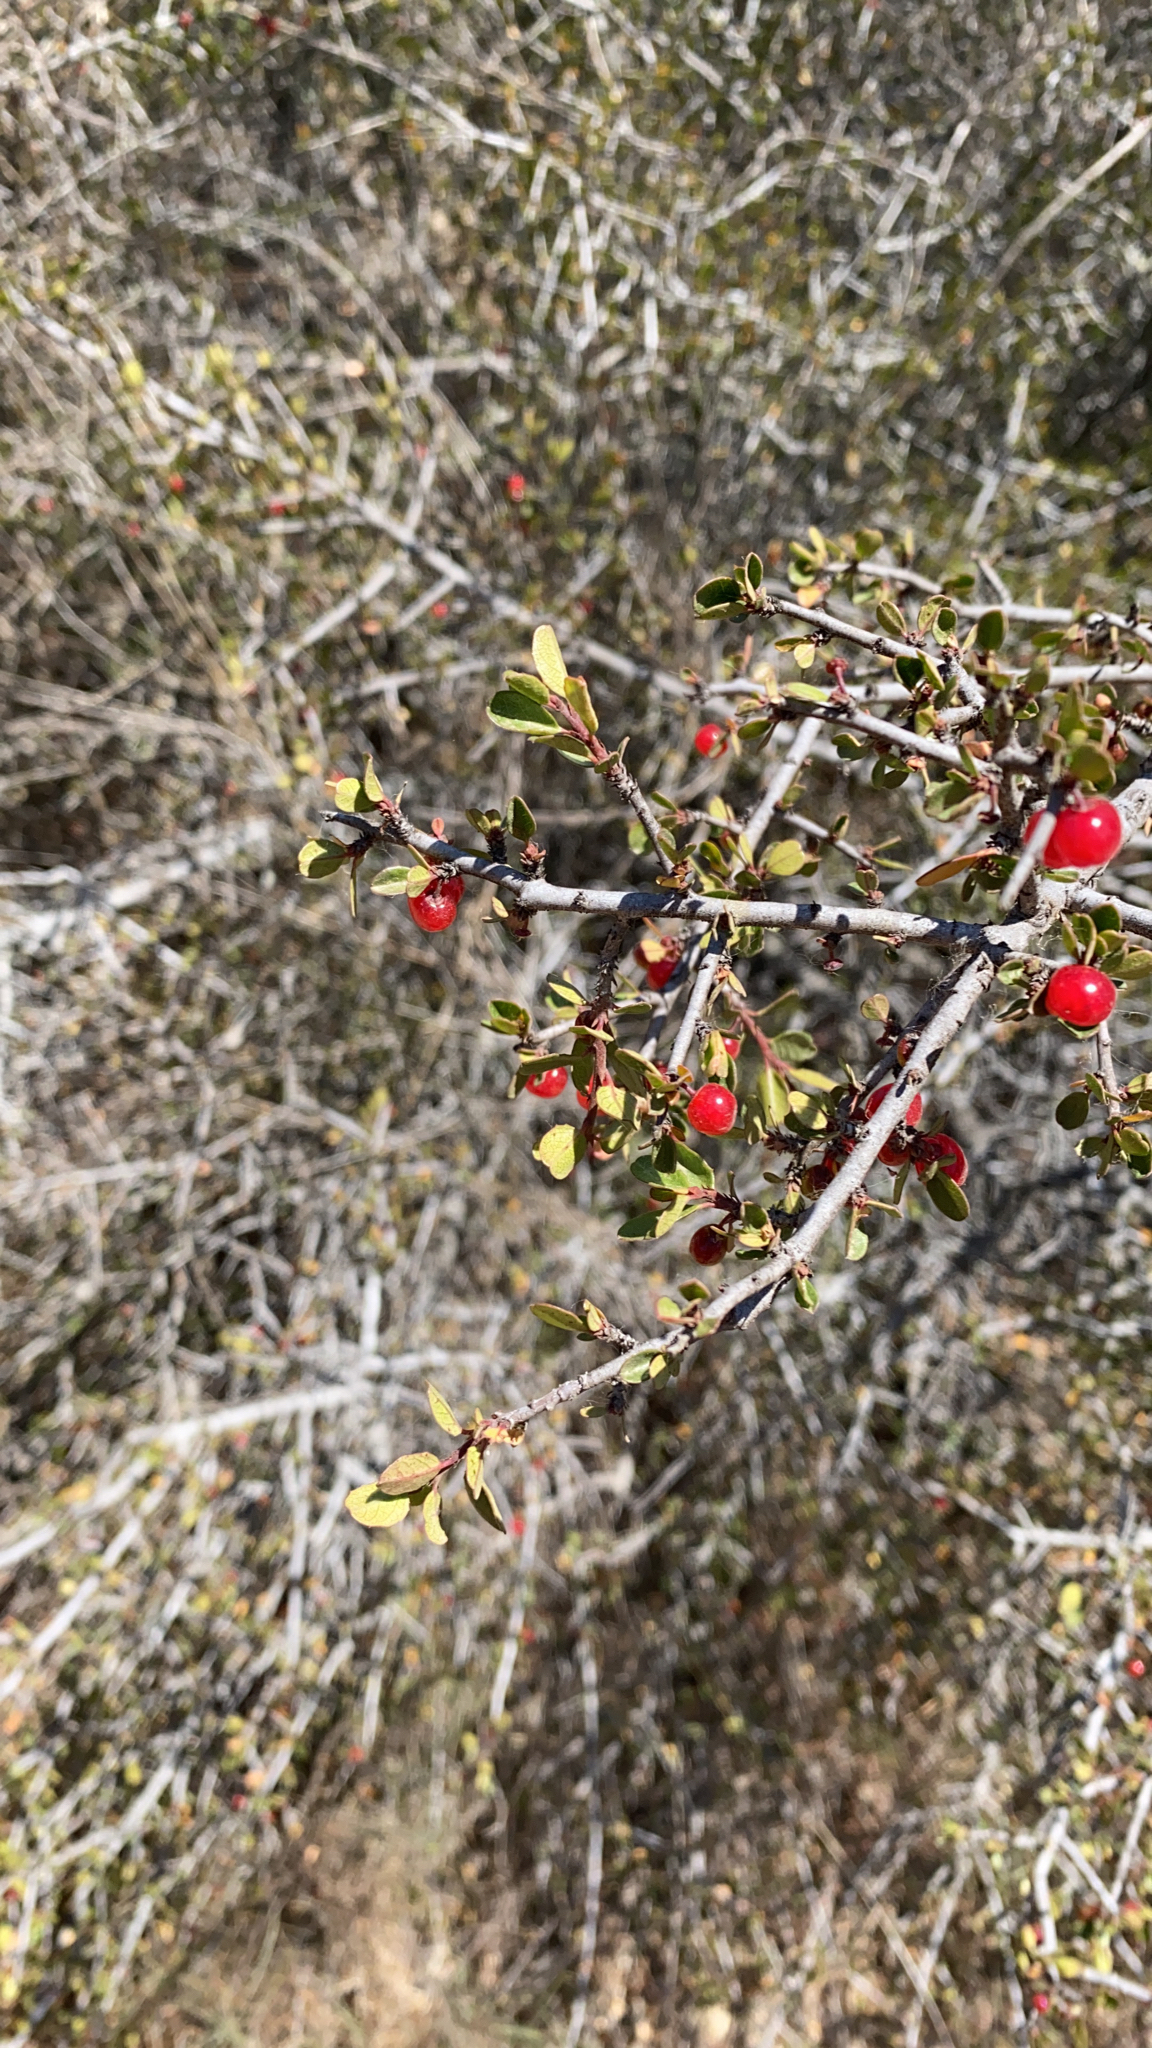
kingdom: Plantae
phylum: Tracheophyta
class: Magnoliopsida
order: Rosales
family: Rhamnaceae
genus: Endotropis
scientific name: Endotropis crocea
